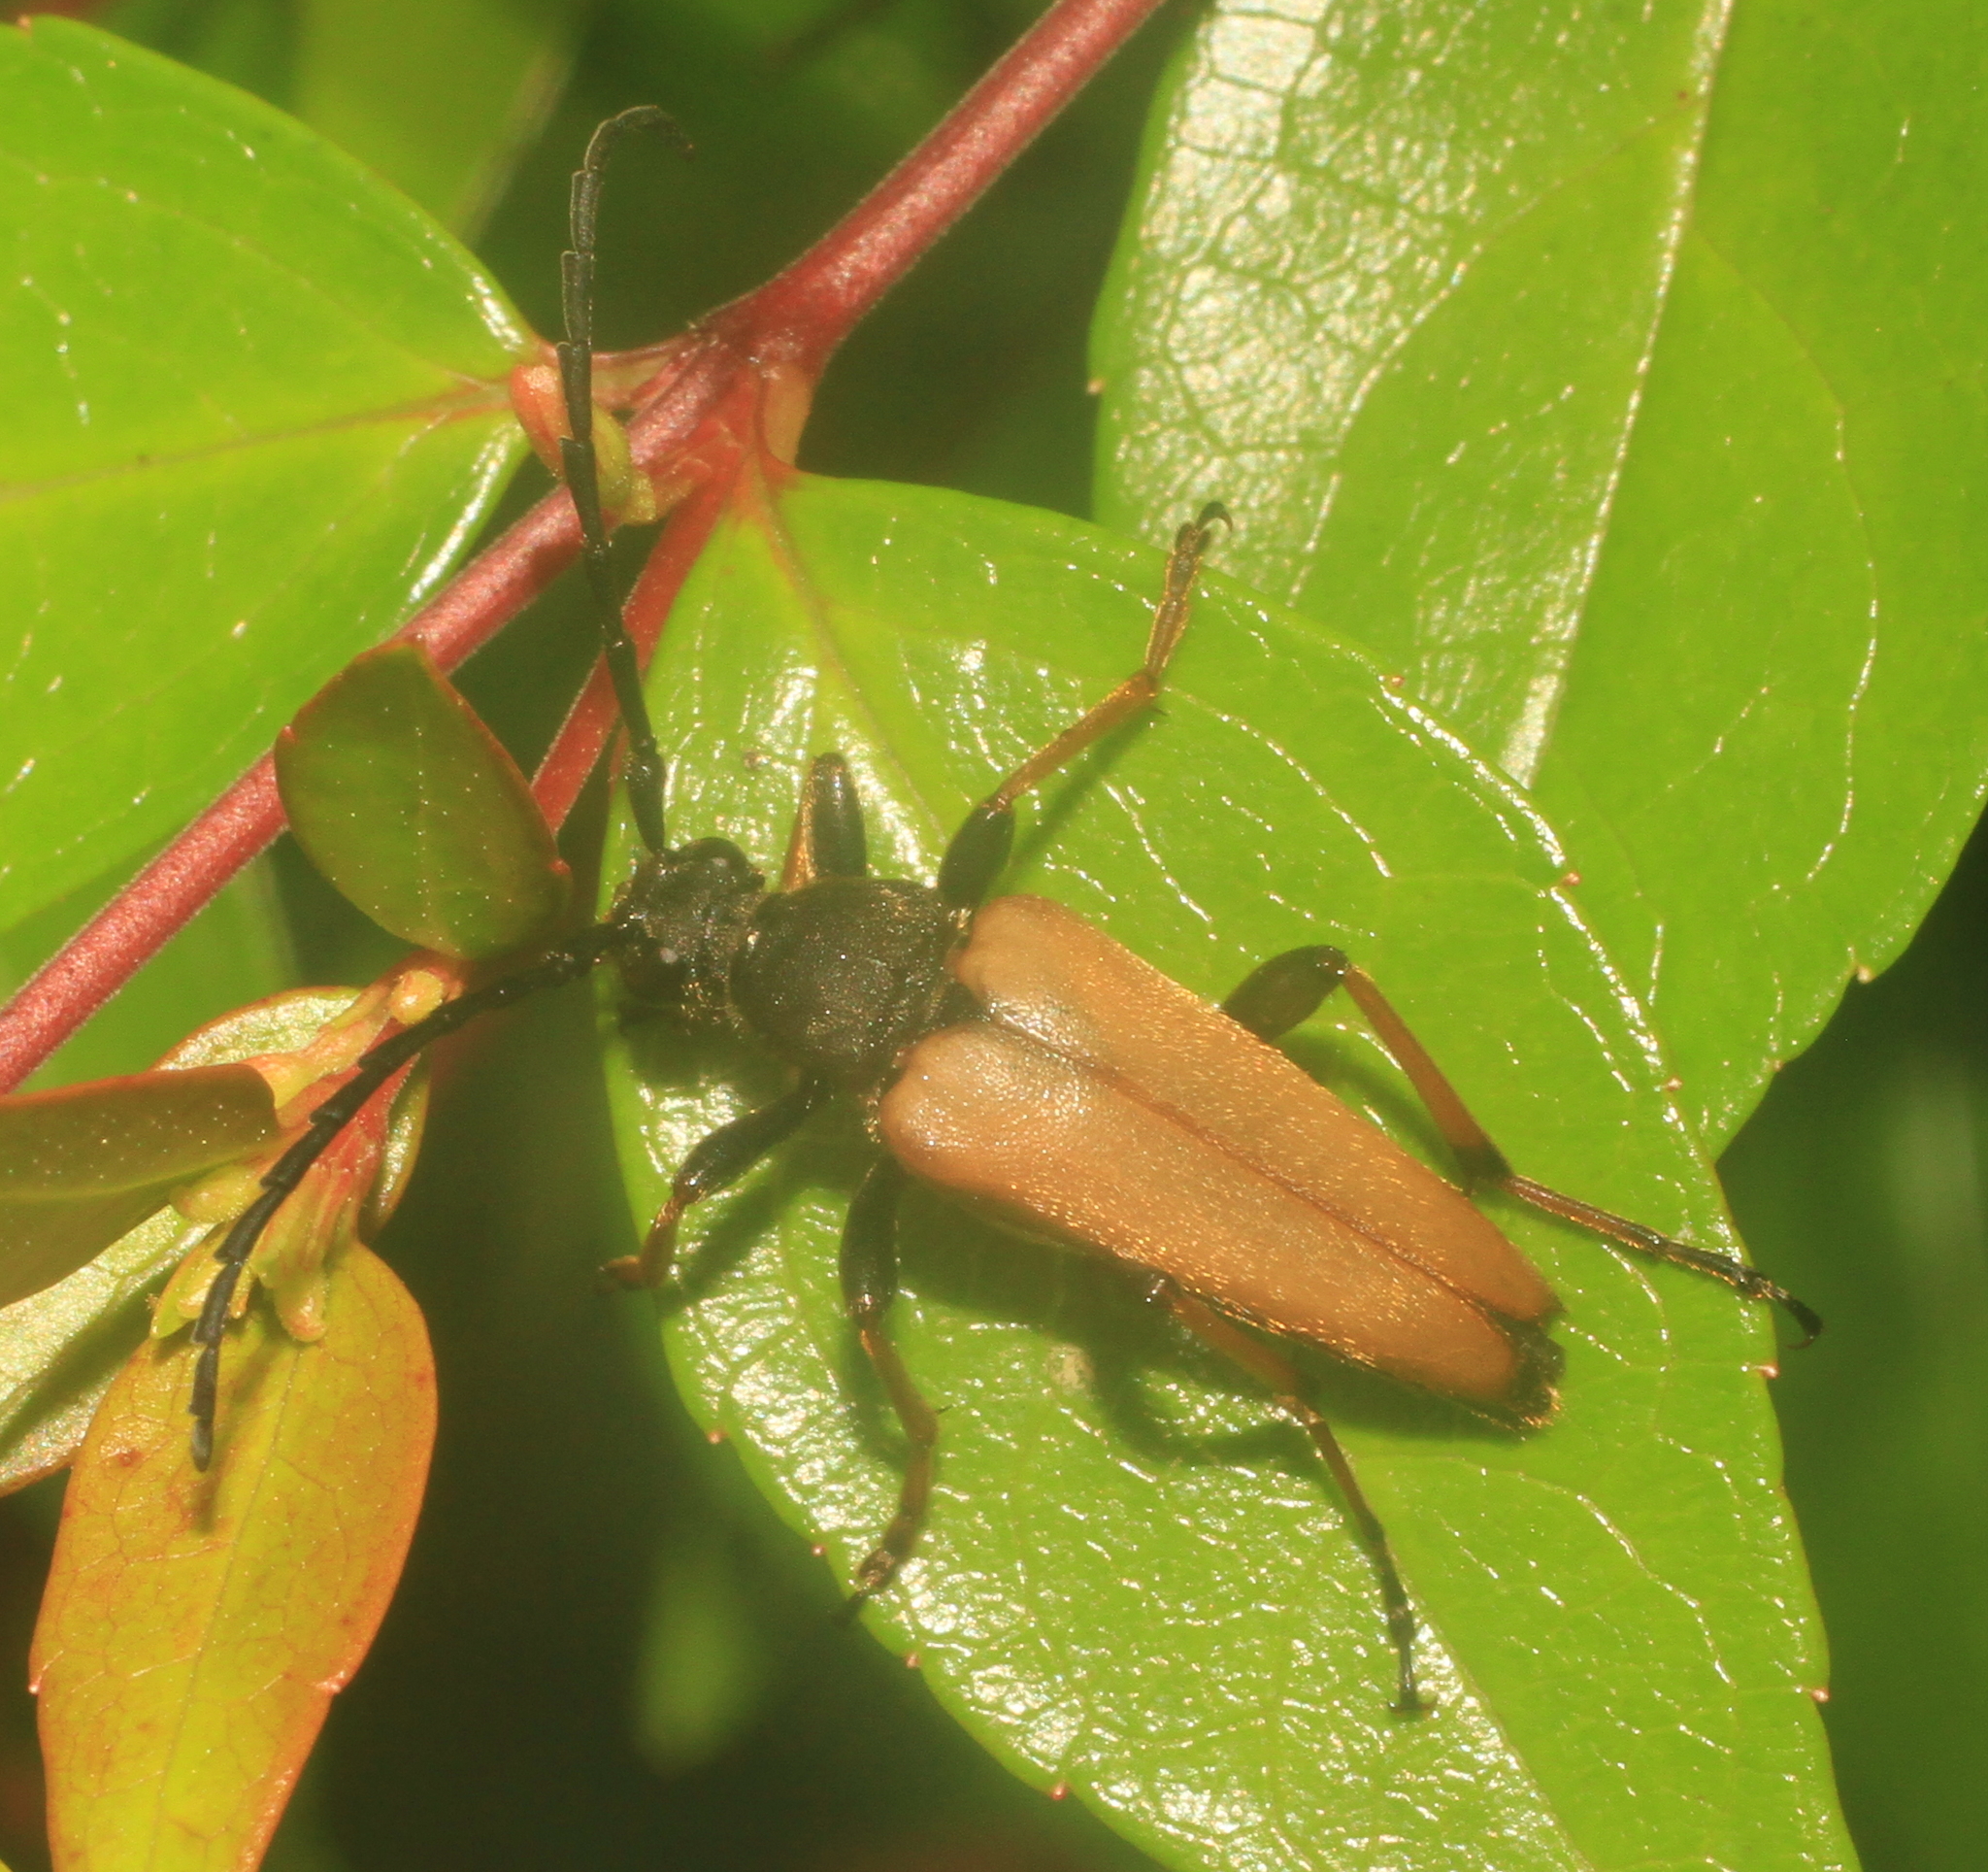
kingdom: Animalia
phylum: Arthropoda
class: Insecta
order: Coleoptera
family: Cerambycidae
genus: Stictoleptura
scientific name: Stictoleptura rubra
